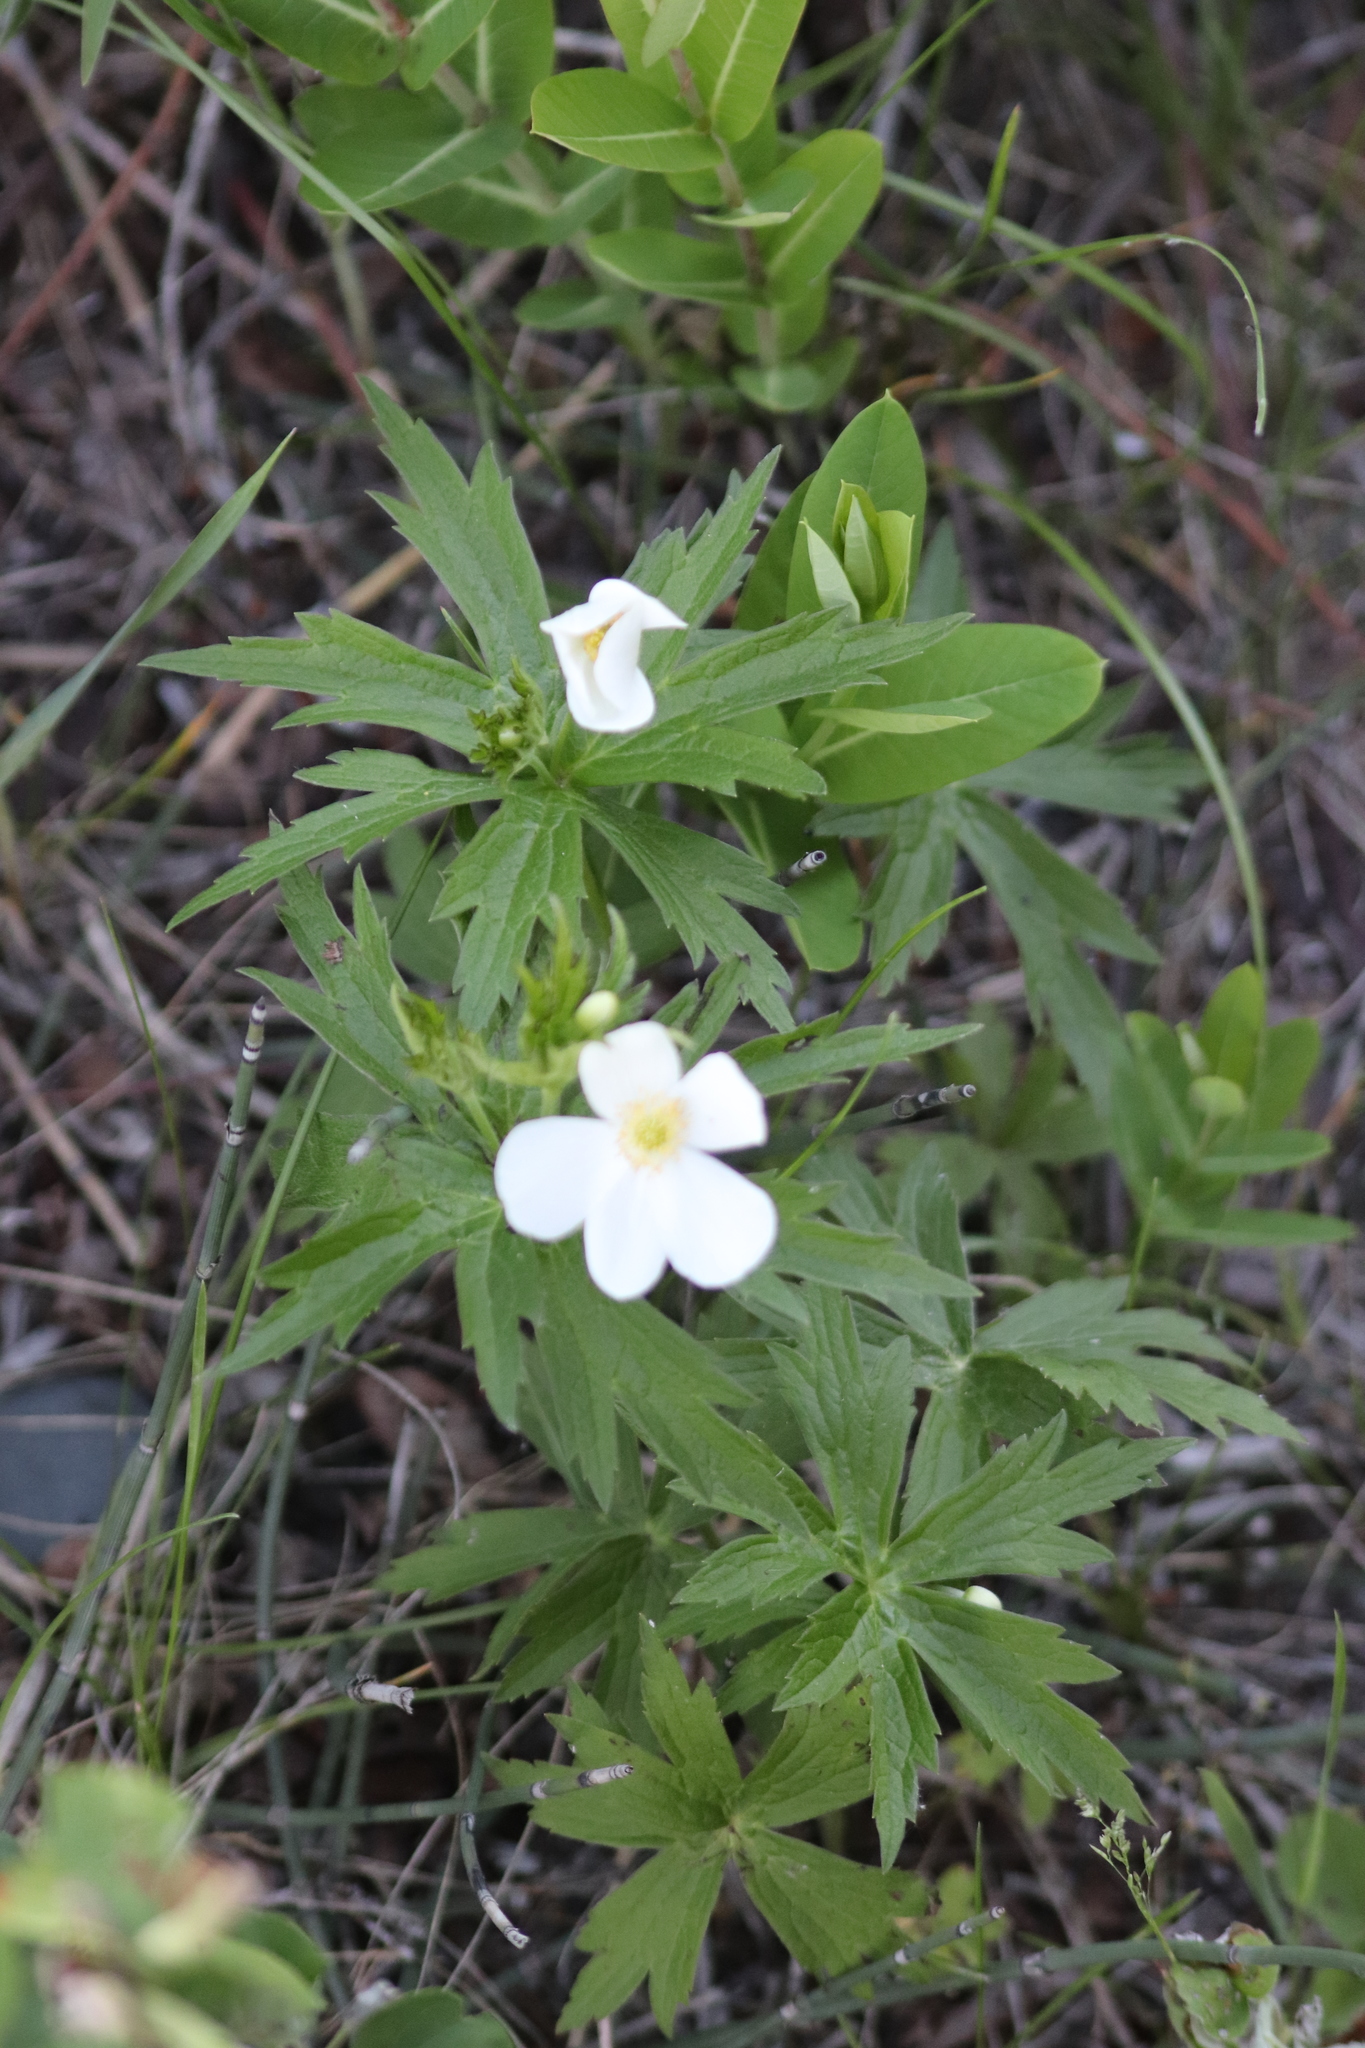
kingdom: Plantae
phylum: Tracheophyta
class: Magnoliopsida
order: Ranunculales
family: Ranunculaceae
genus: Anemonastrum
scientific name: Anemonastrum canadense
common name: Canada anemone
